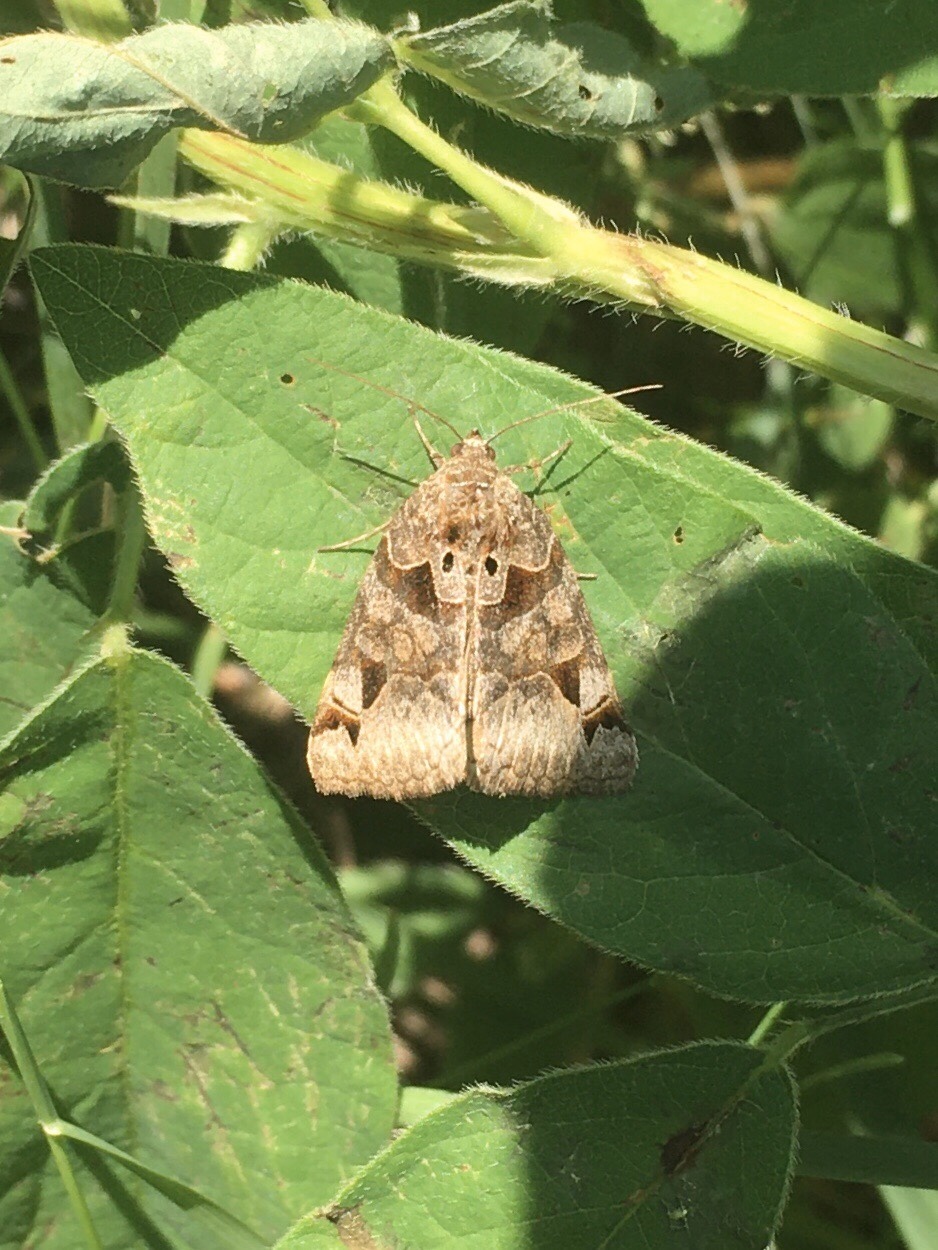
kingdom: Animalia
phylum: Arthropoda
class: Insecta
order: Lepidoptera
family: Erebidae
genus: Euclidia
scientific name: Euclidia cuspidea
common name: Toothed somberwing
